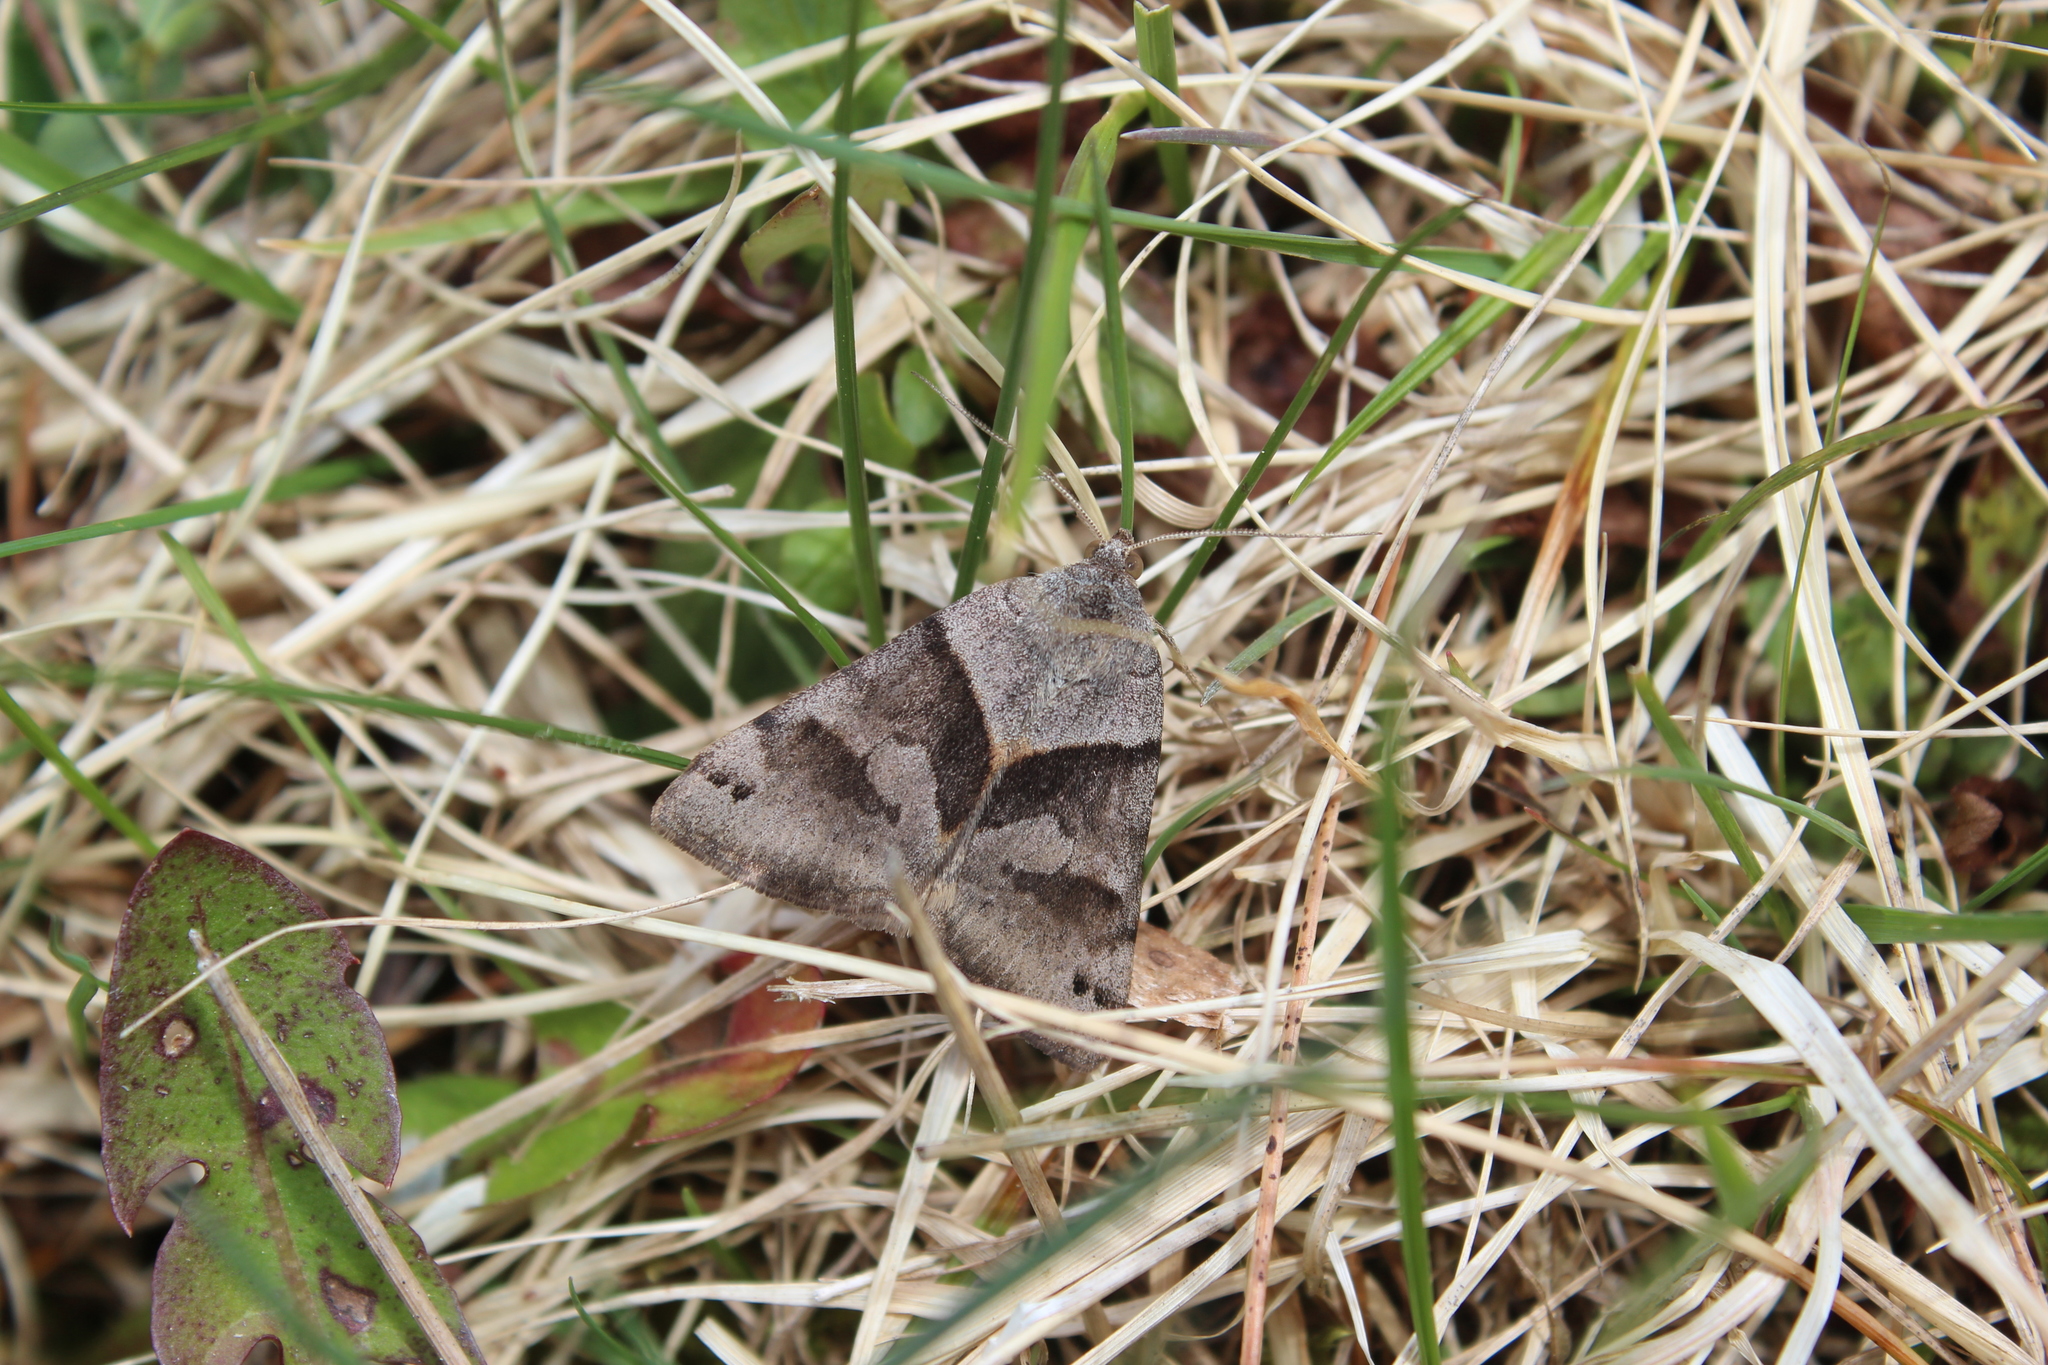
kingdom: Animalia
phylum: Arthropoda
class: Insecta
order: Lepidoptera
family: Erebidae
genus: Caenurgina
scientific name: Caenurgina crassiuscula
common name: Double-barred
